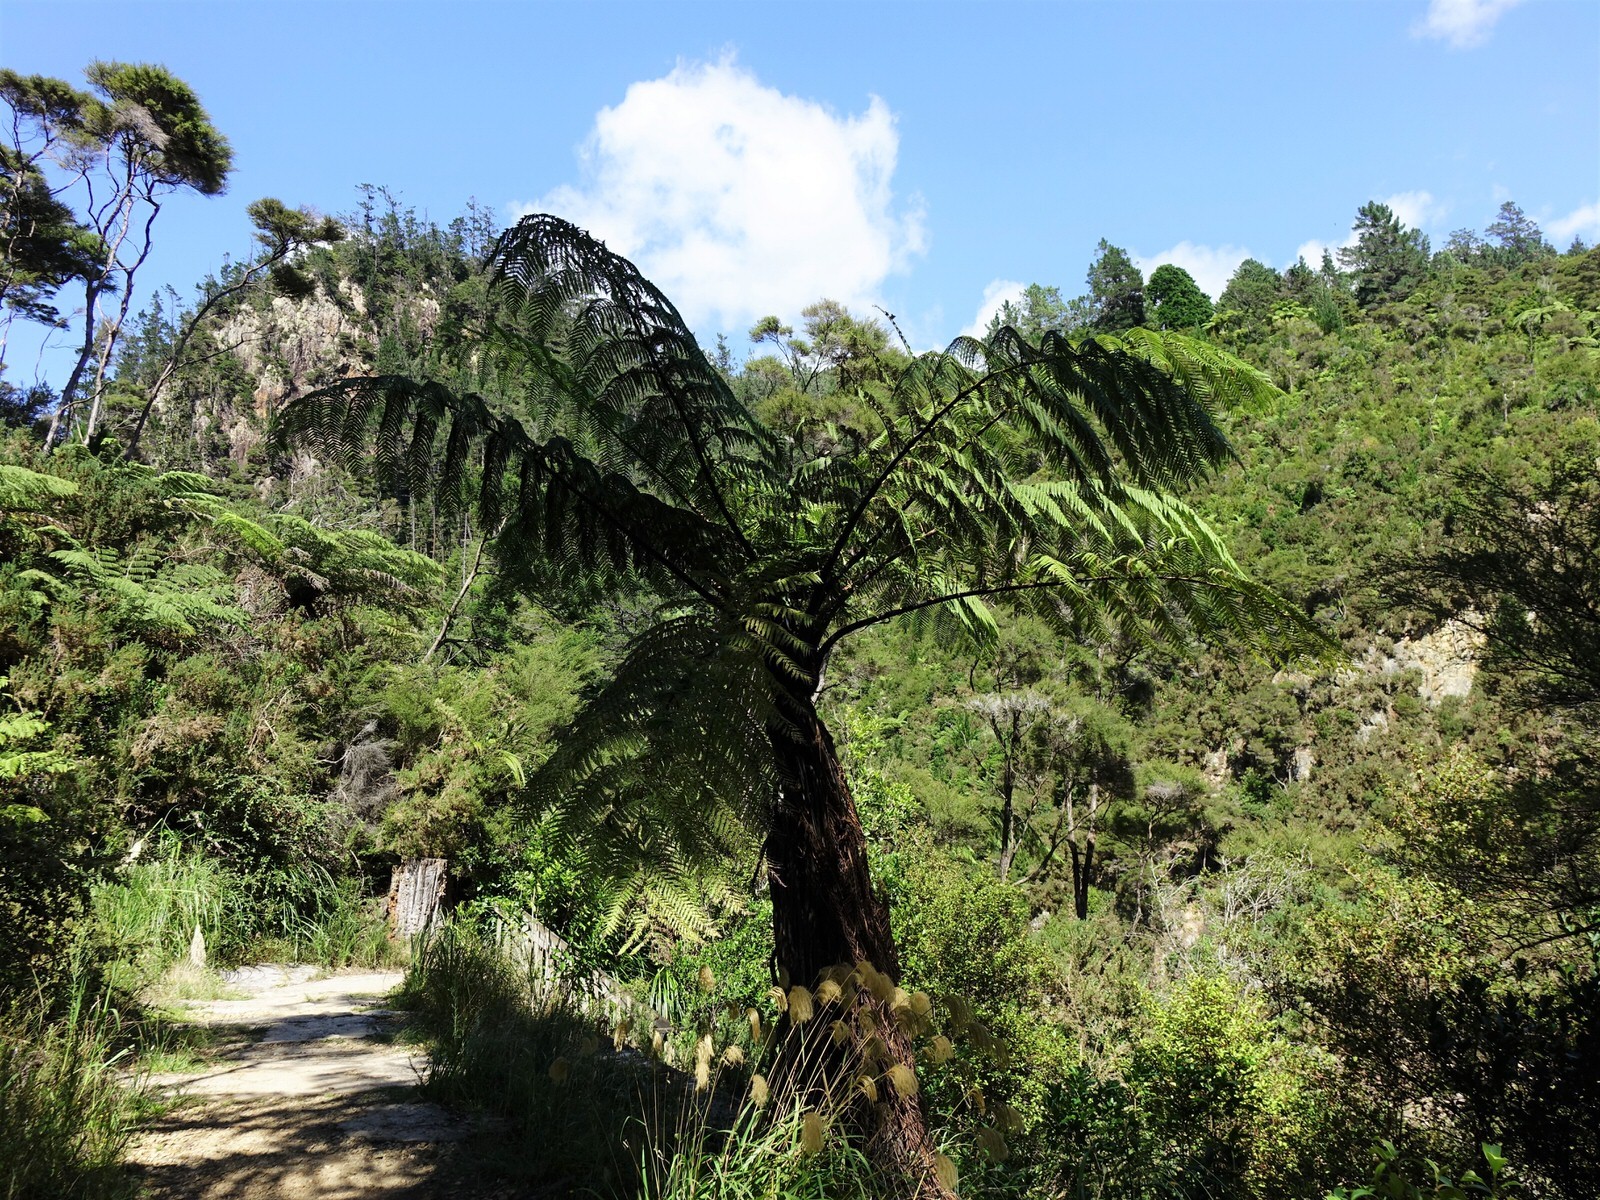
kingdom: Plantae
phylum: Tracheophyta
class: Polypodiopsida
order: Cyatheales
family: Cyatheaceae
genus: Sphaeropteris
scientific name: Sphaeropteris medullaris
